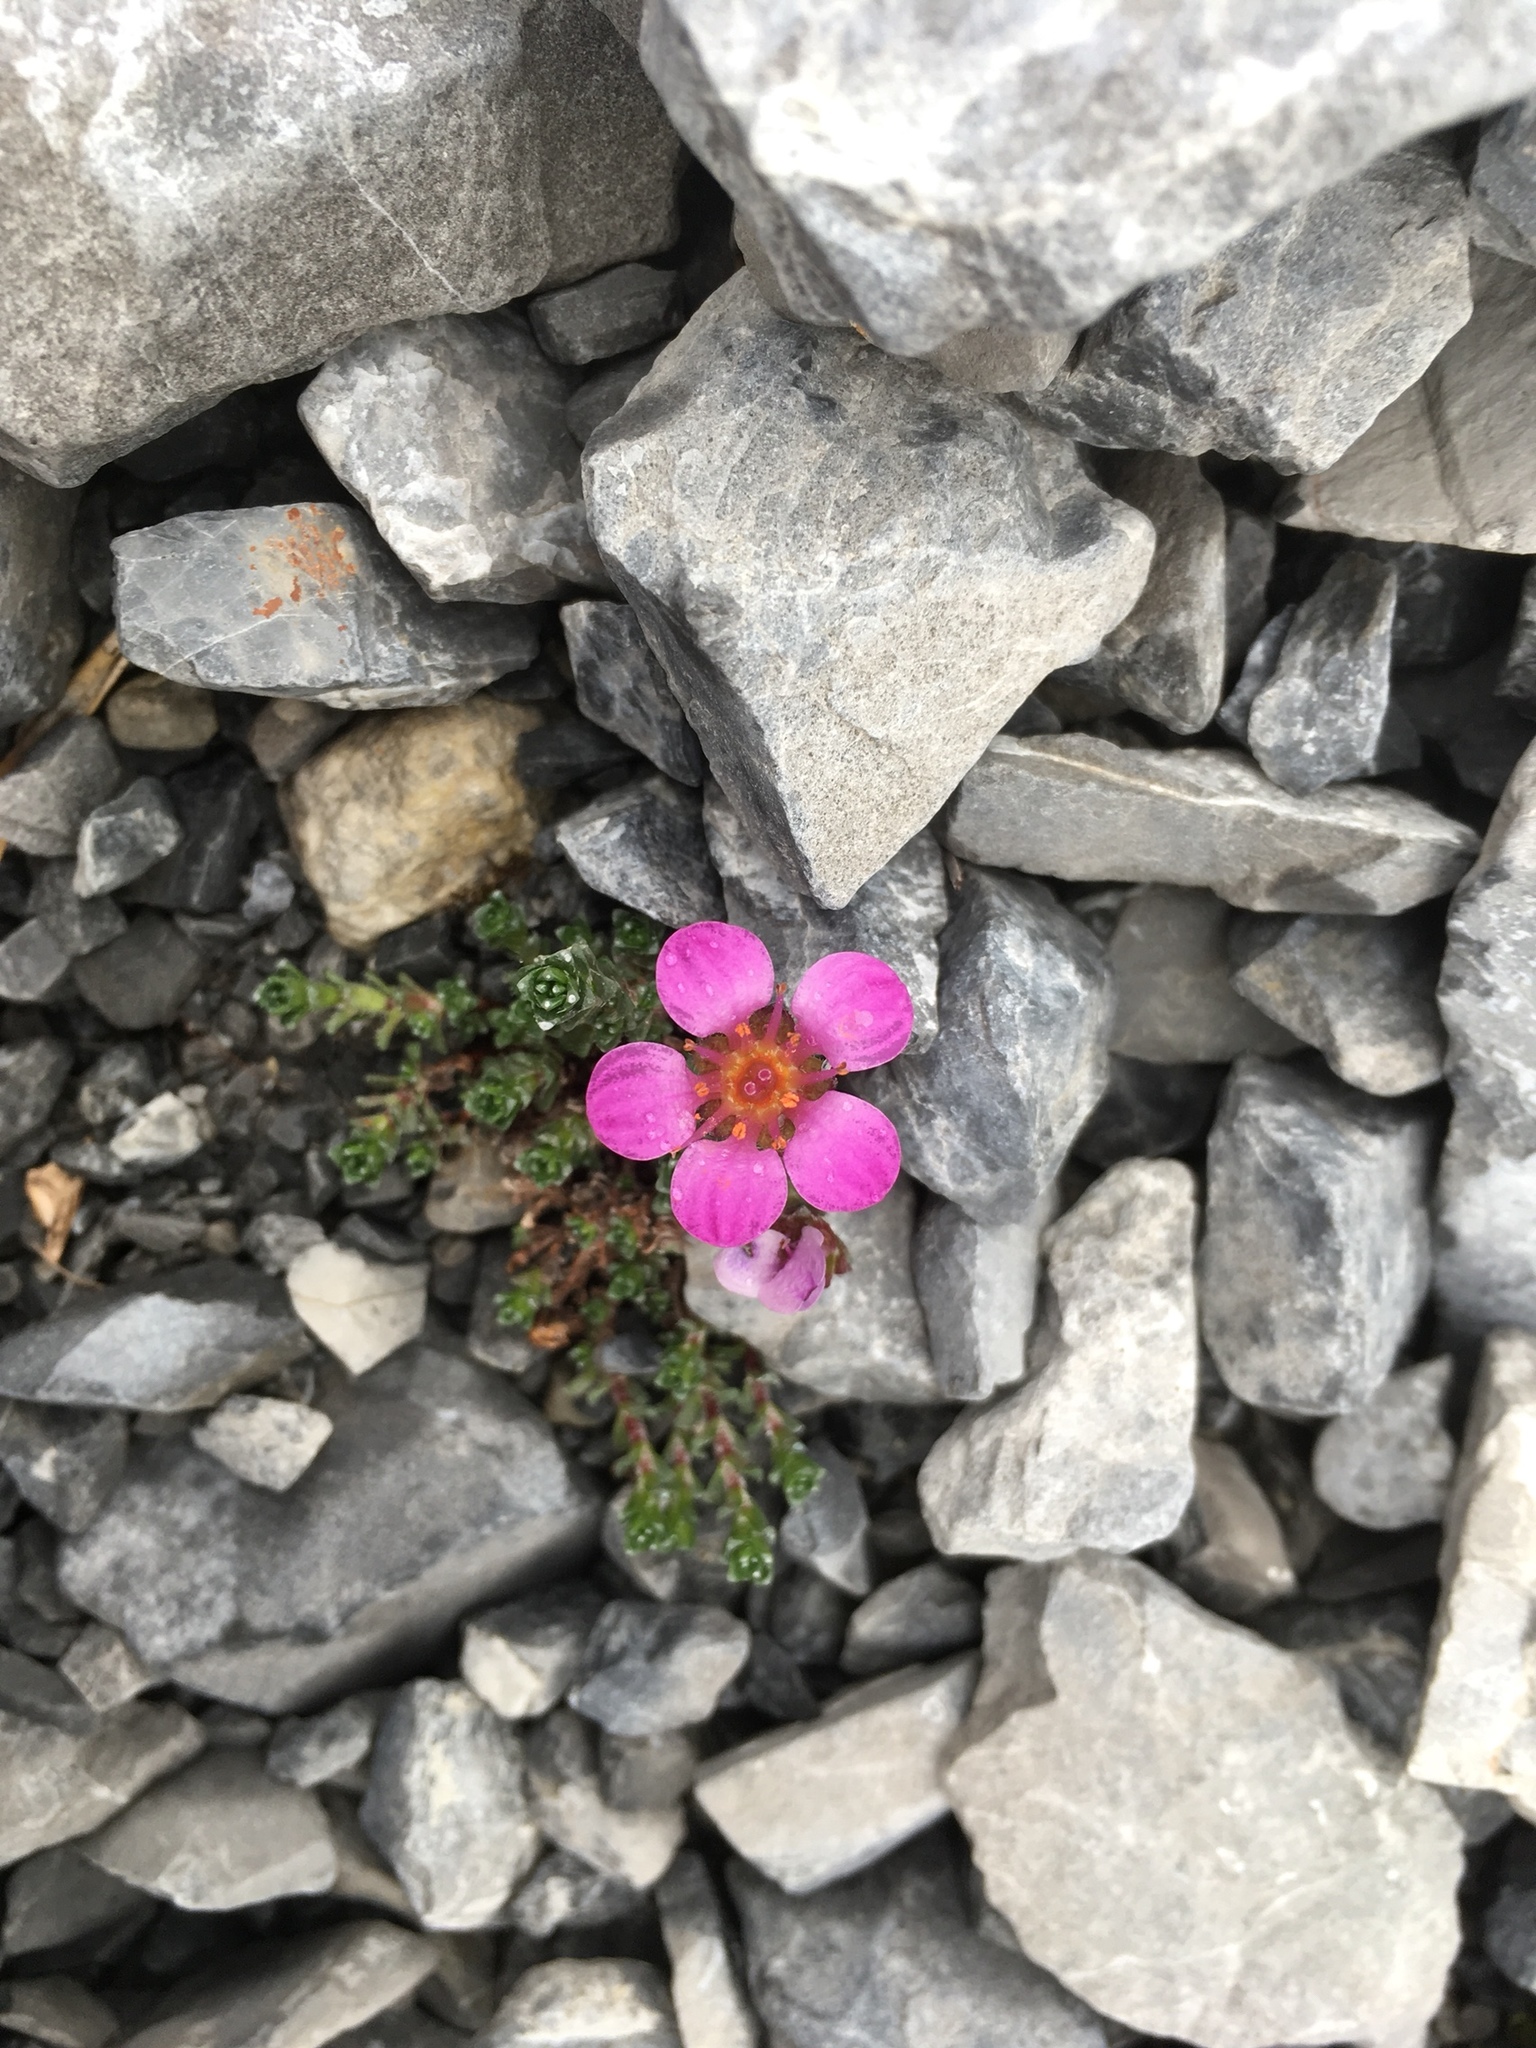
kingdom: Plantae
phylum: Tracheophyta
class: Magnoliopsida
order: Saxifragales
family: Saxifragaceae
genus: Saxifraga
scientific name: Saxifraga oppositifolia
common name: Purple saxifrage
